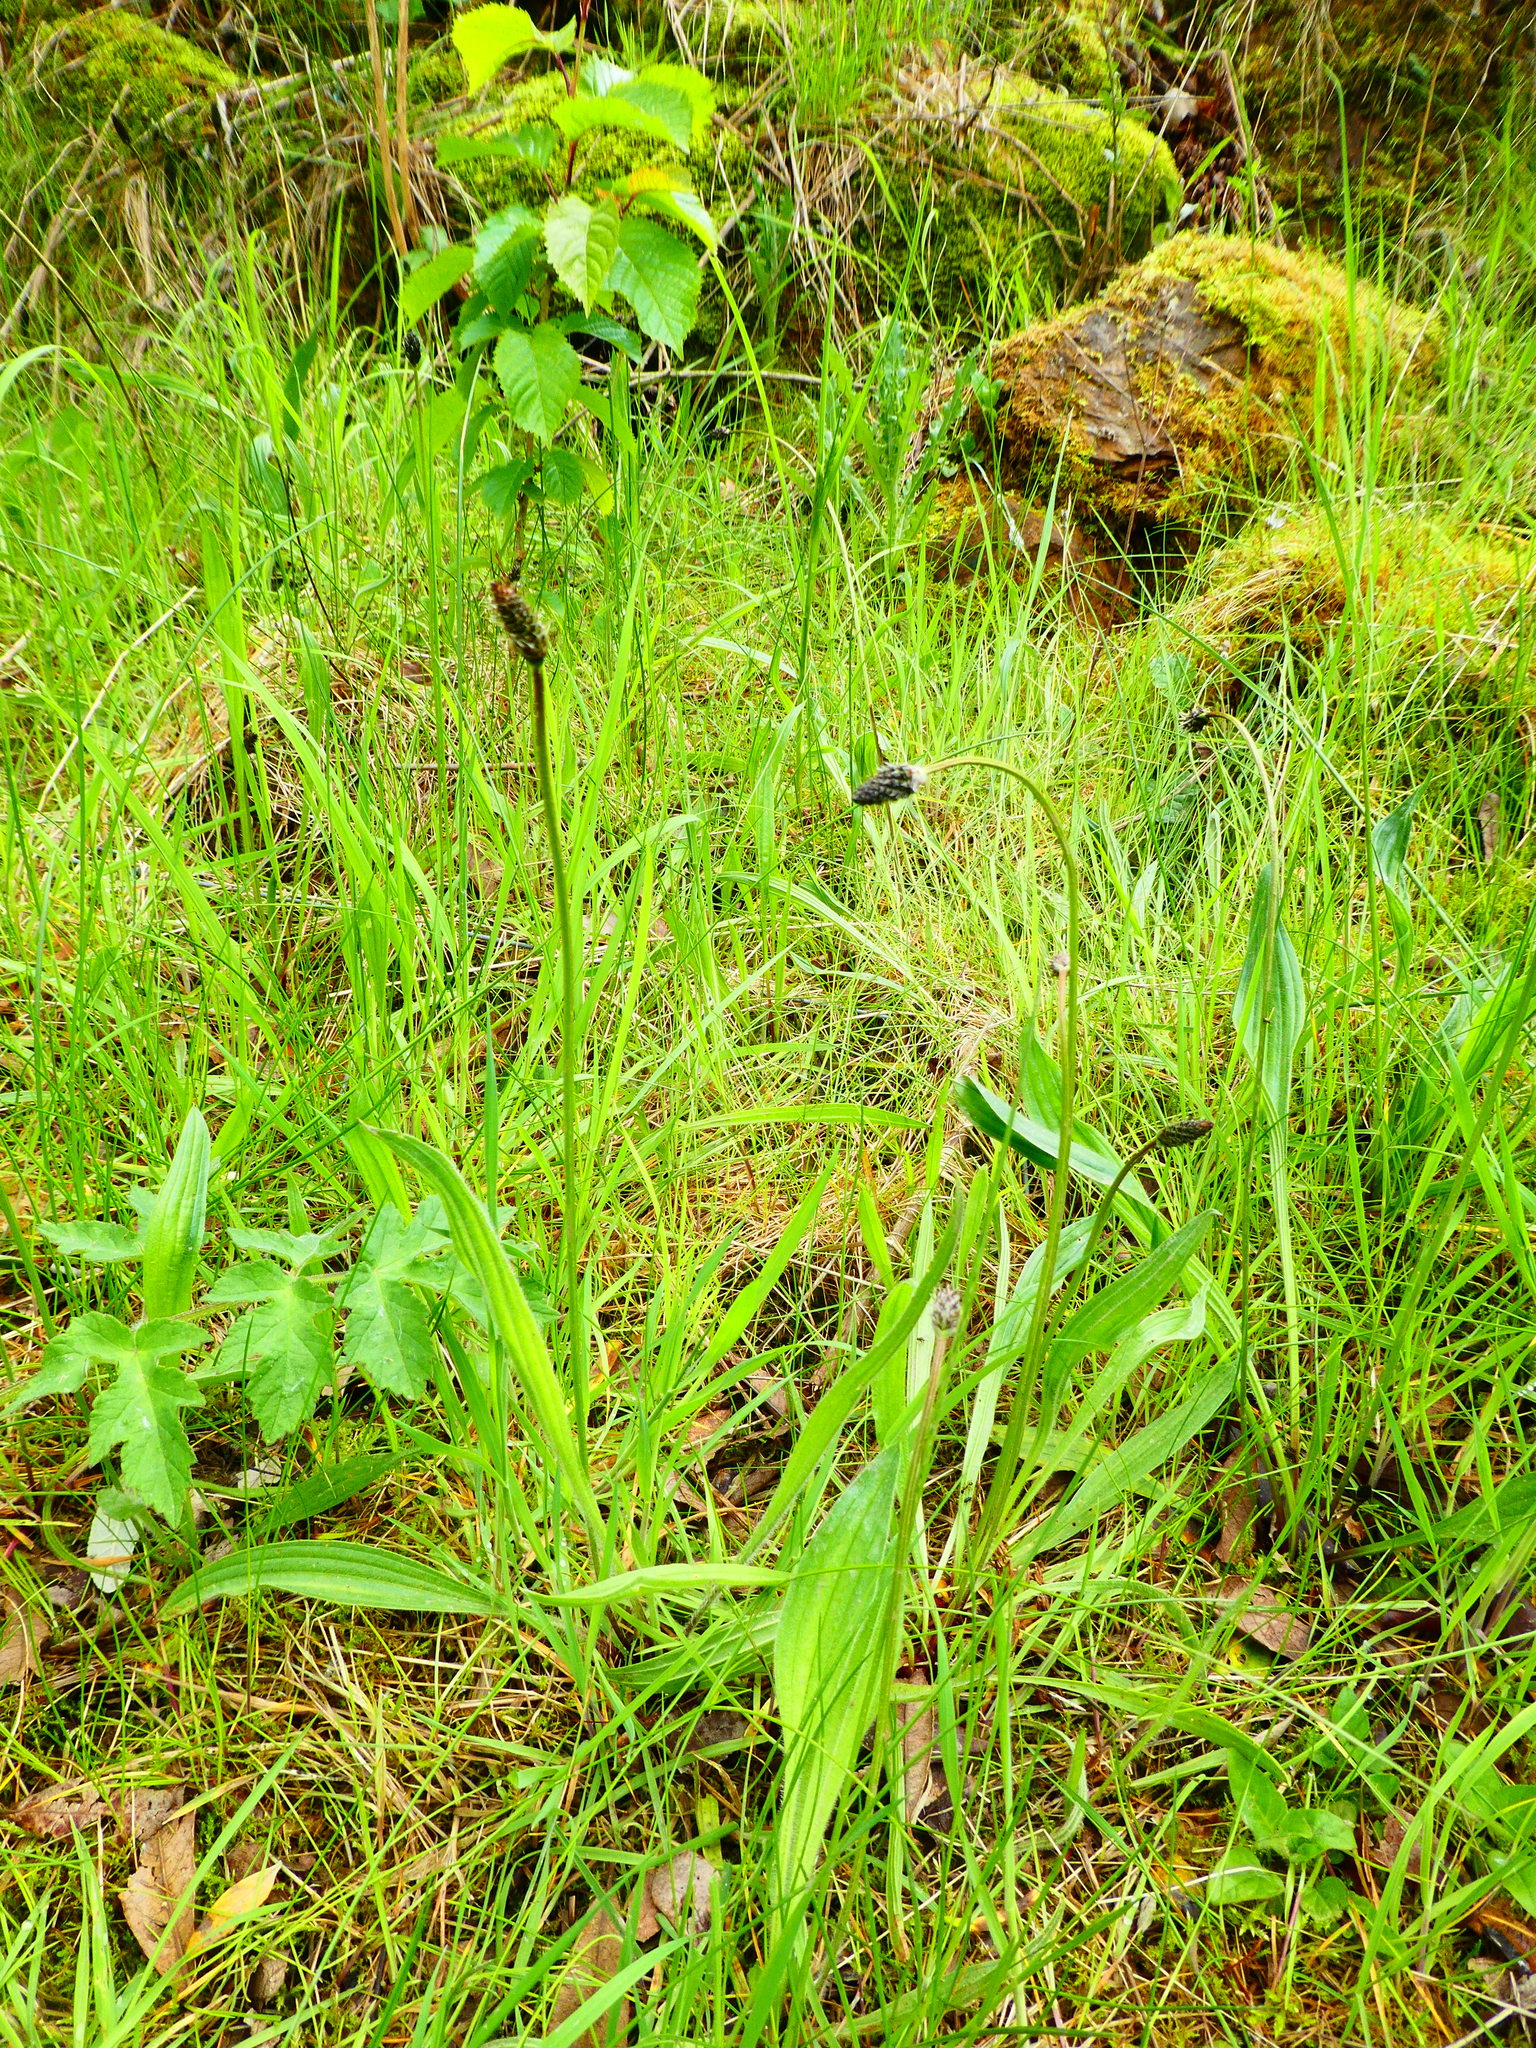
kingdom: Plantae
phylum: Tracheophyta
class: Magnoliopsida
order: Lamiales
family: Plantaginaceae
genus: Plantago
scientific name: Plantago lanceolata
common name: Ribwort plantain
